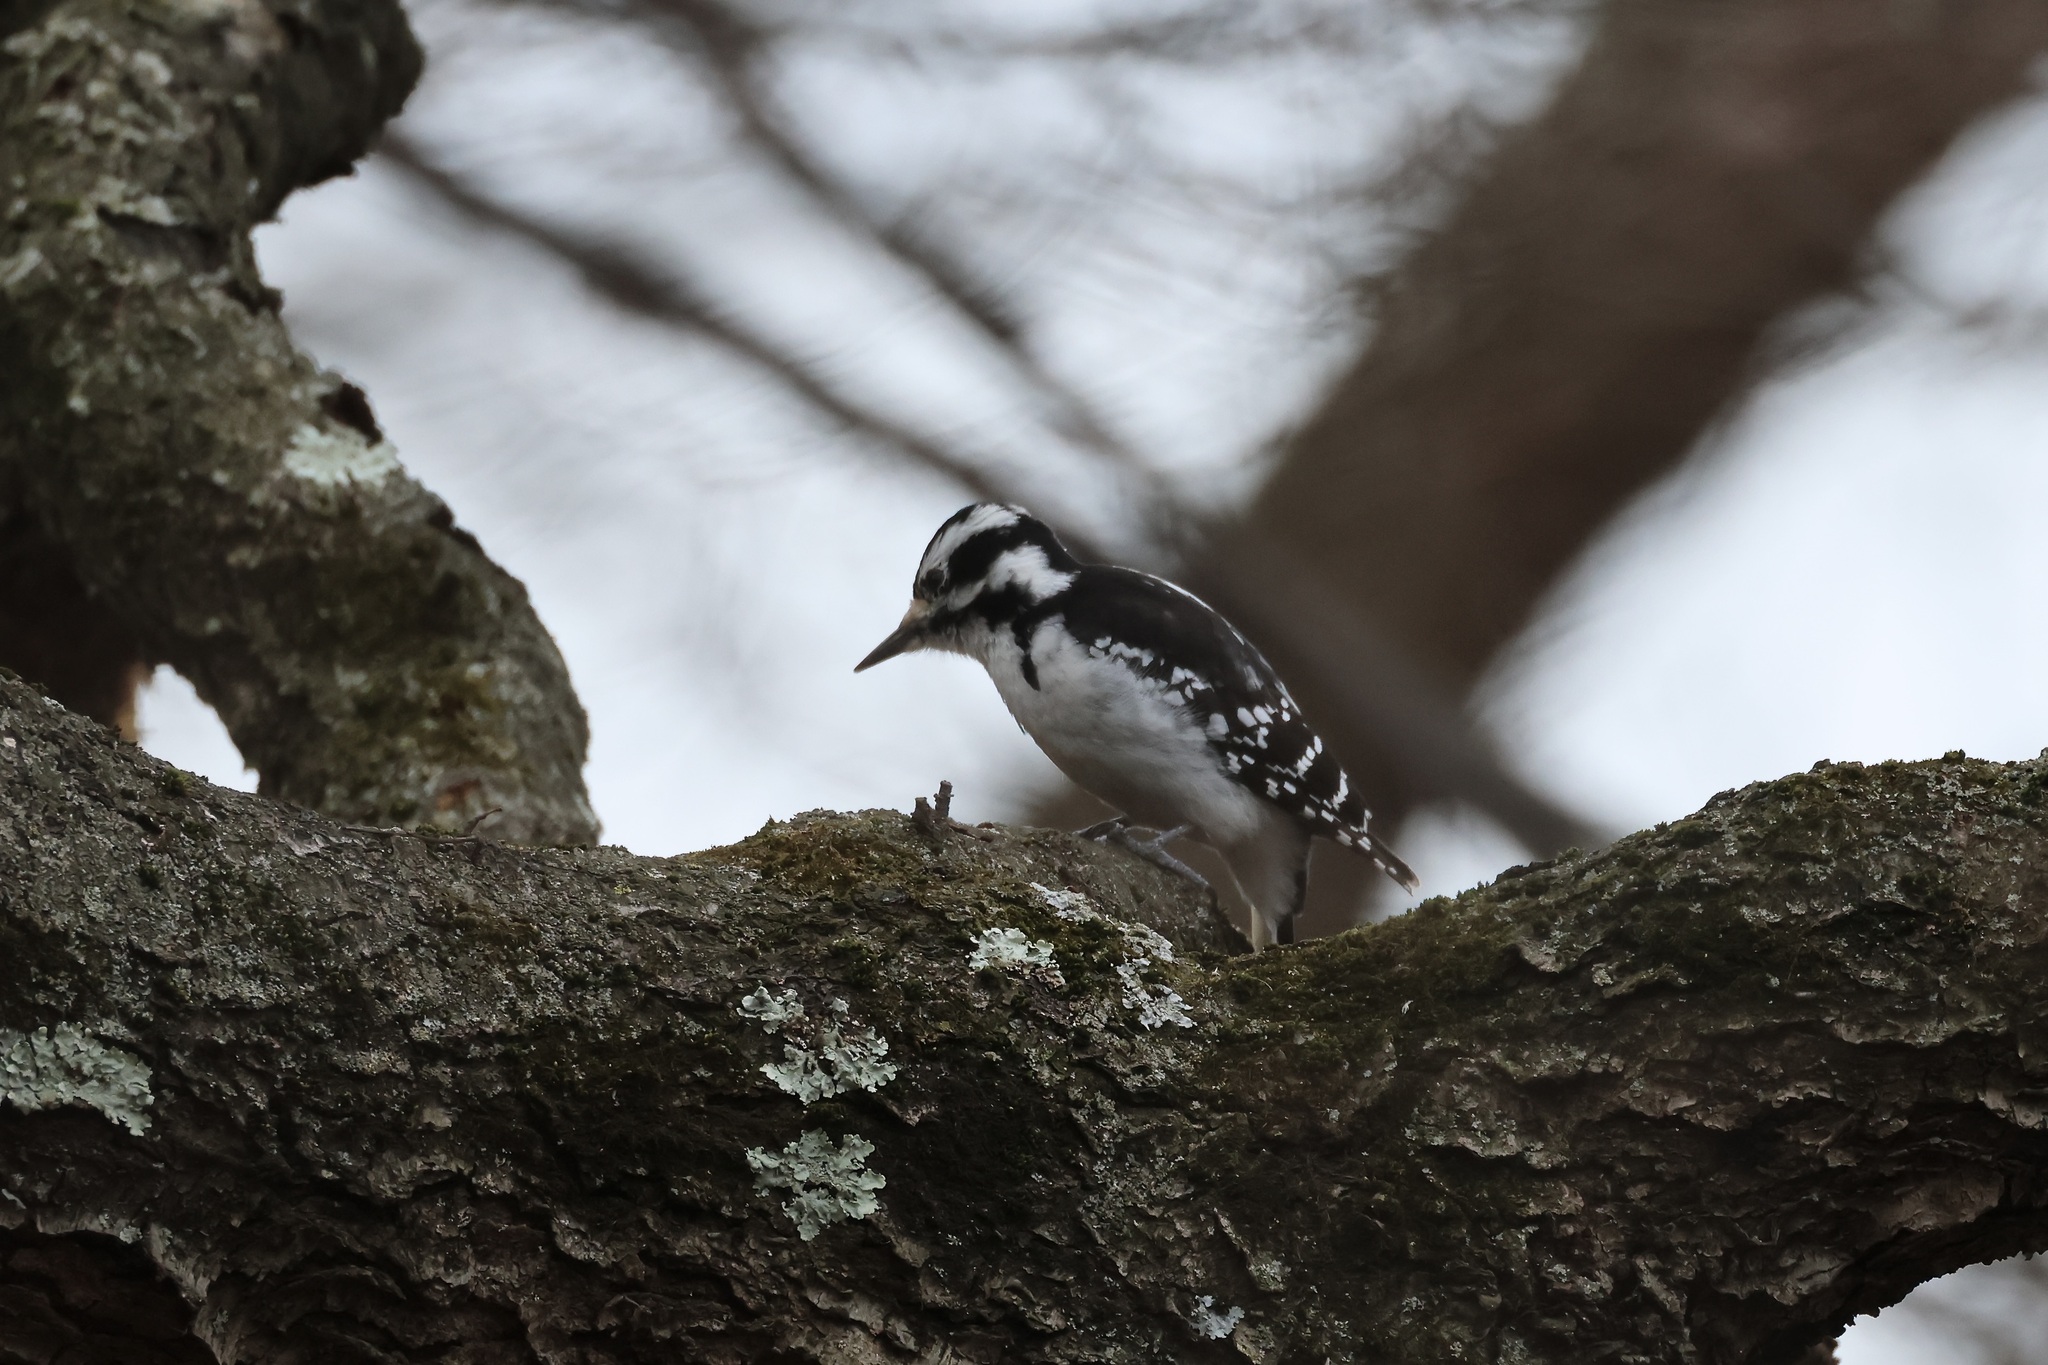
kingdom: Animalia
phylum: Chordata
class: Aves
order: Piciformes
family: Picidae
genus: Leuconotopicus
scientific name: Leuconotopicus villosus
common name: Hairy woodpecker
